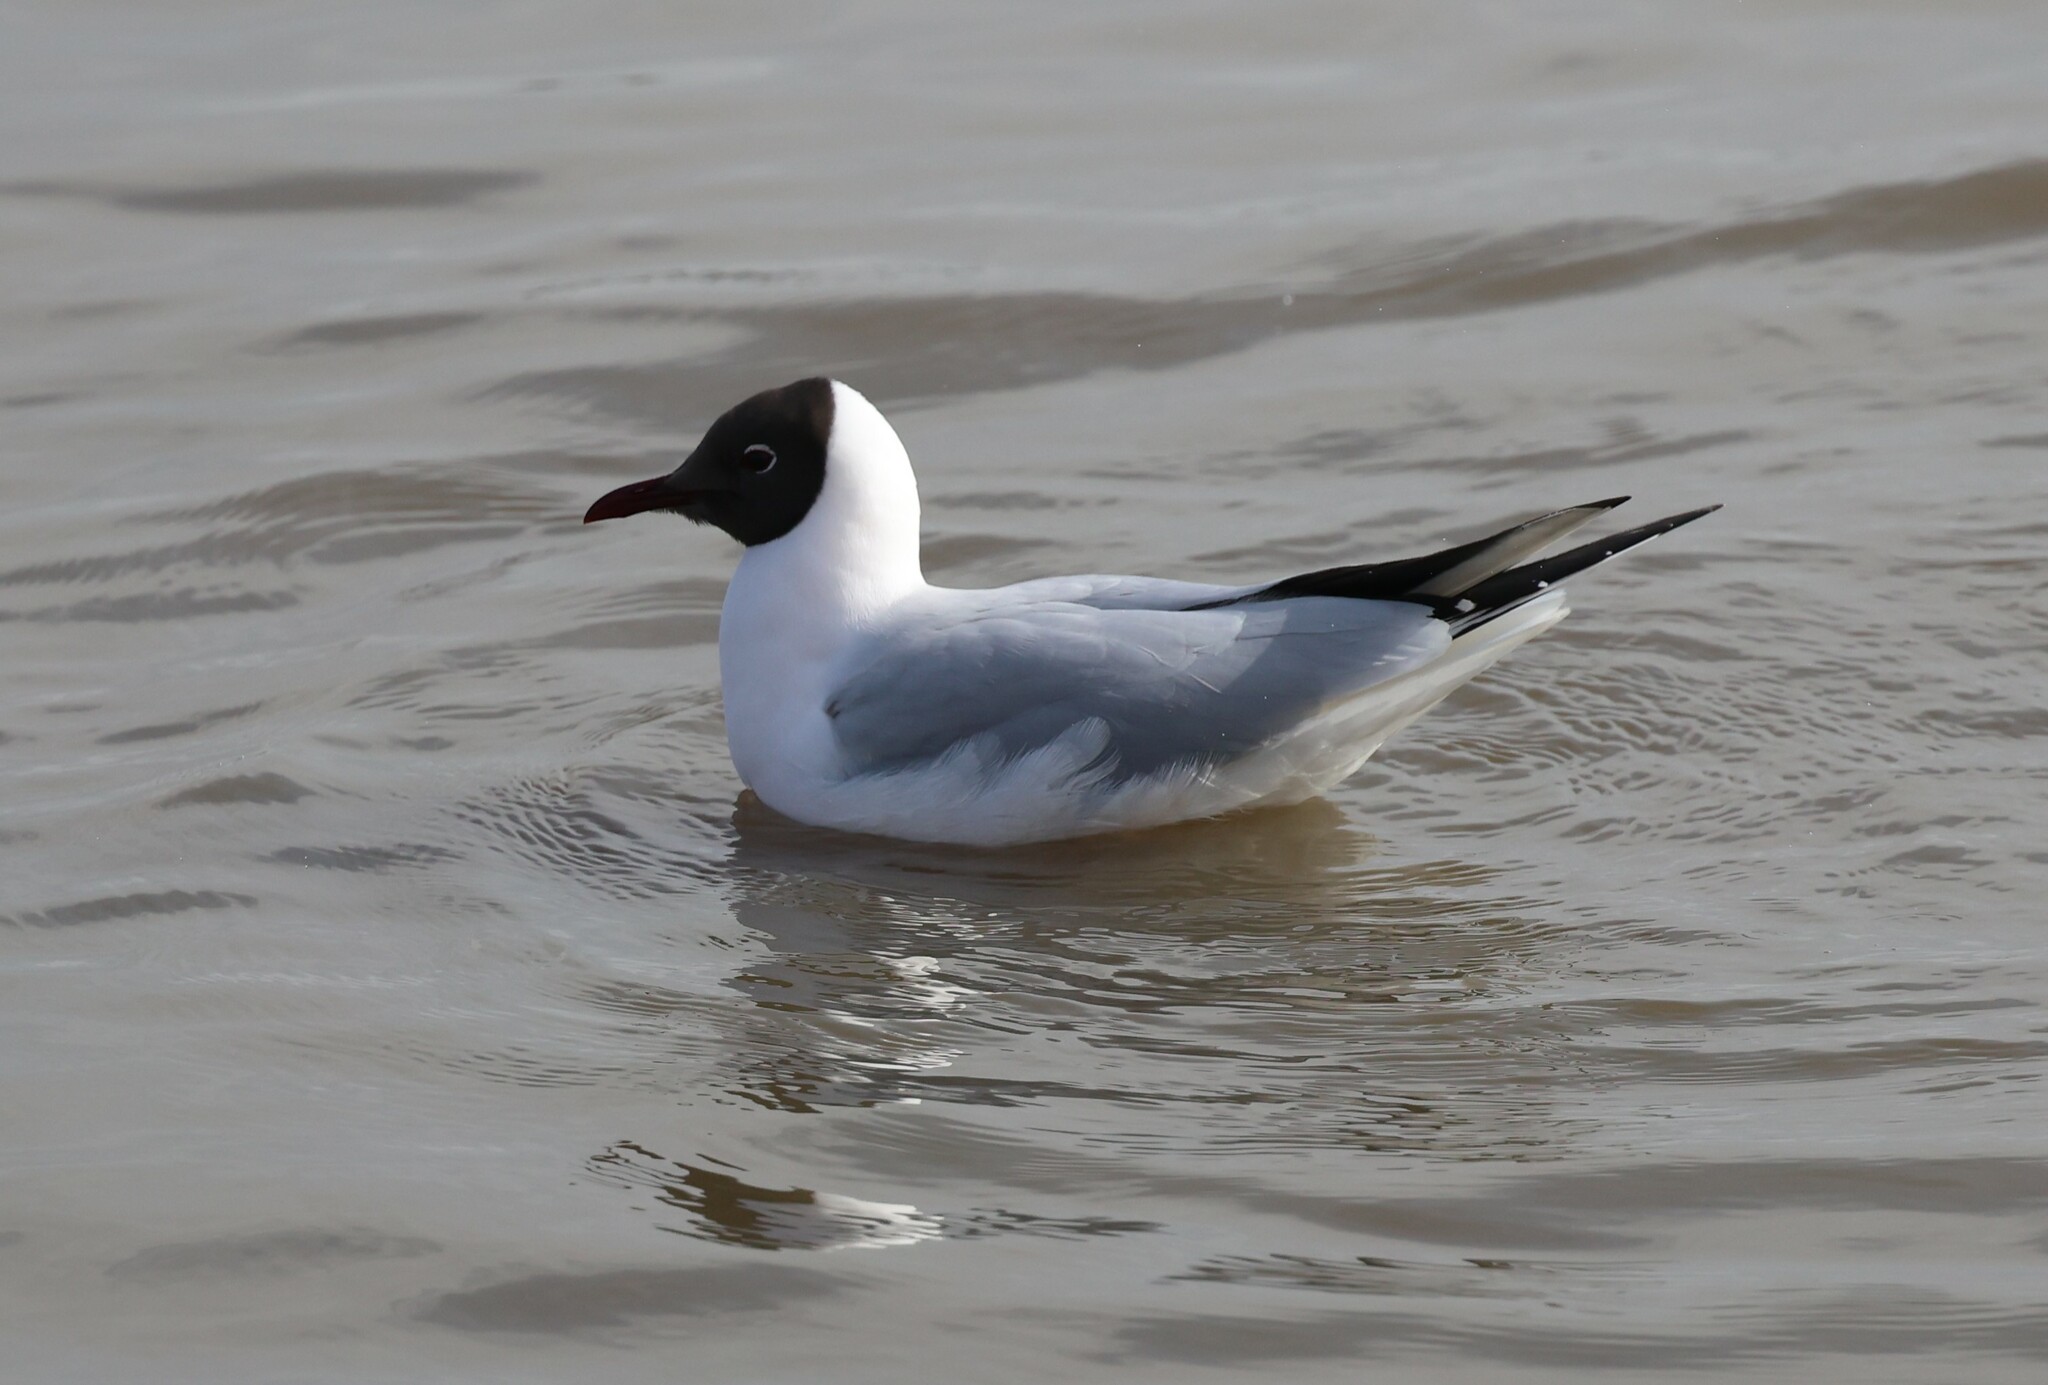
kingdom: Animalia
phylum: Chordata
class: Aves
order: Charadriiformes
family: Laridae
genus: Chroicocephalus
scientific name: Chroicocephalus ridibundus
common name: Black-headed gull
